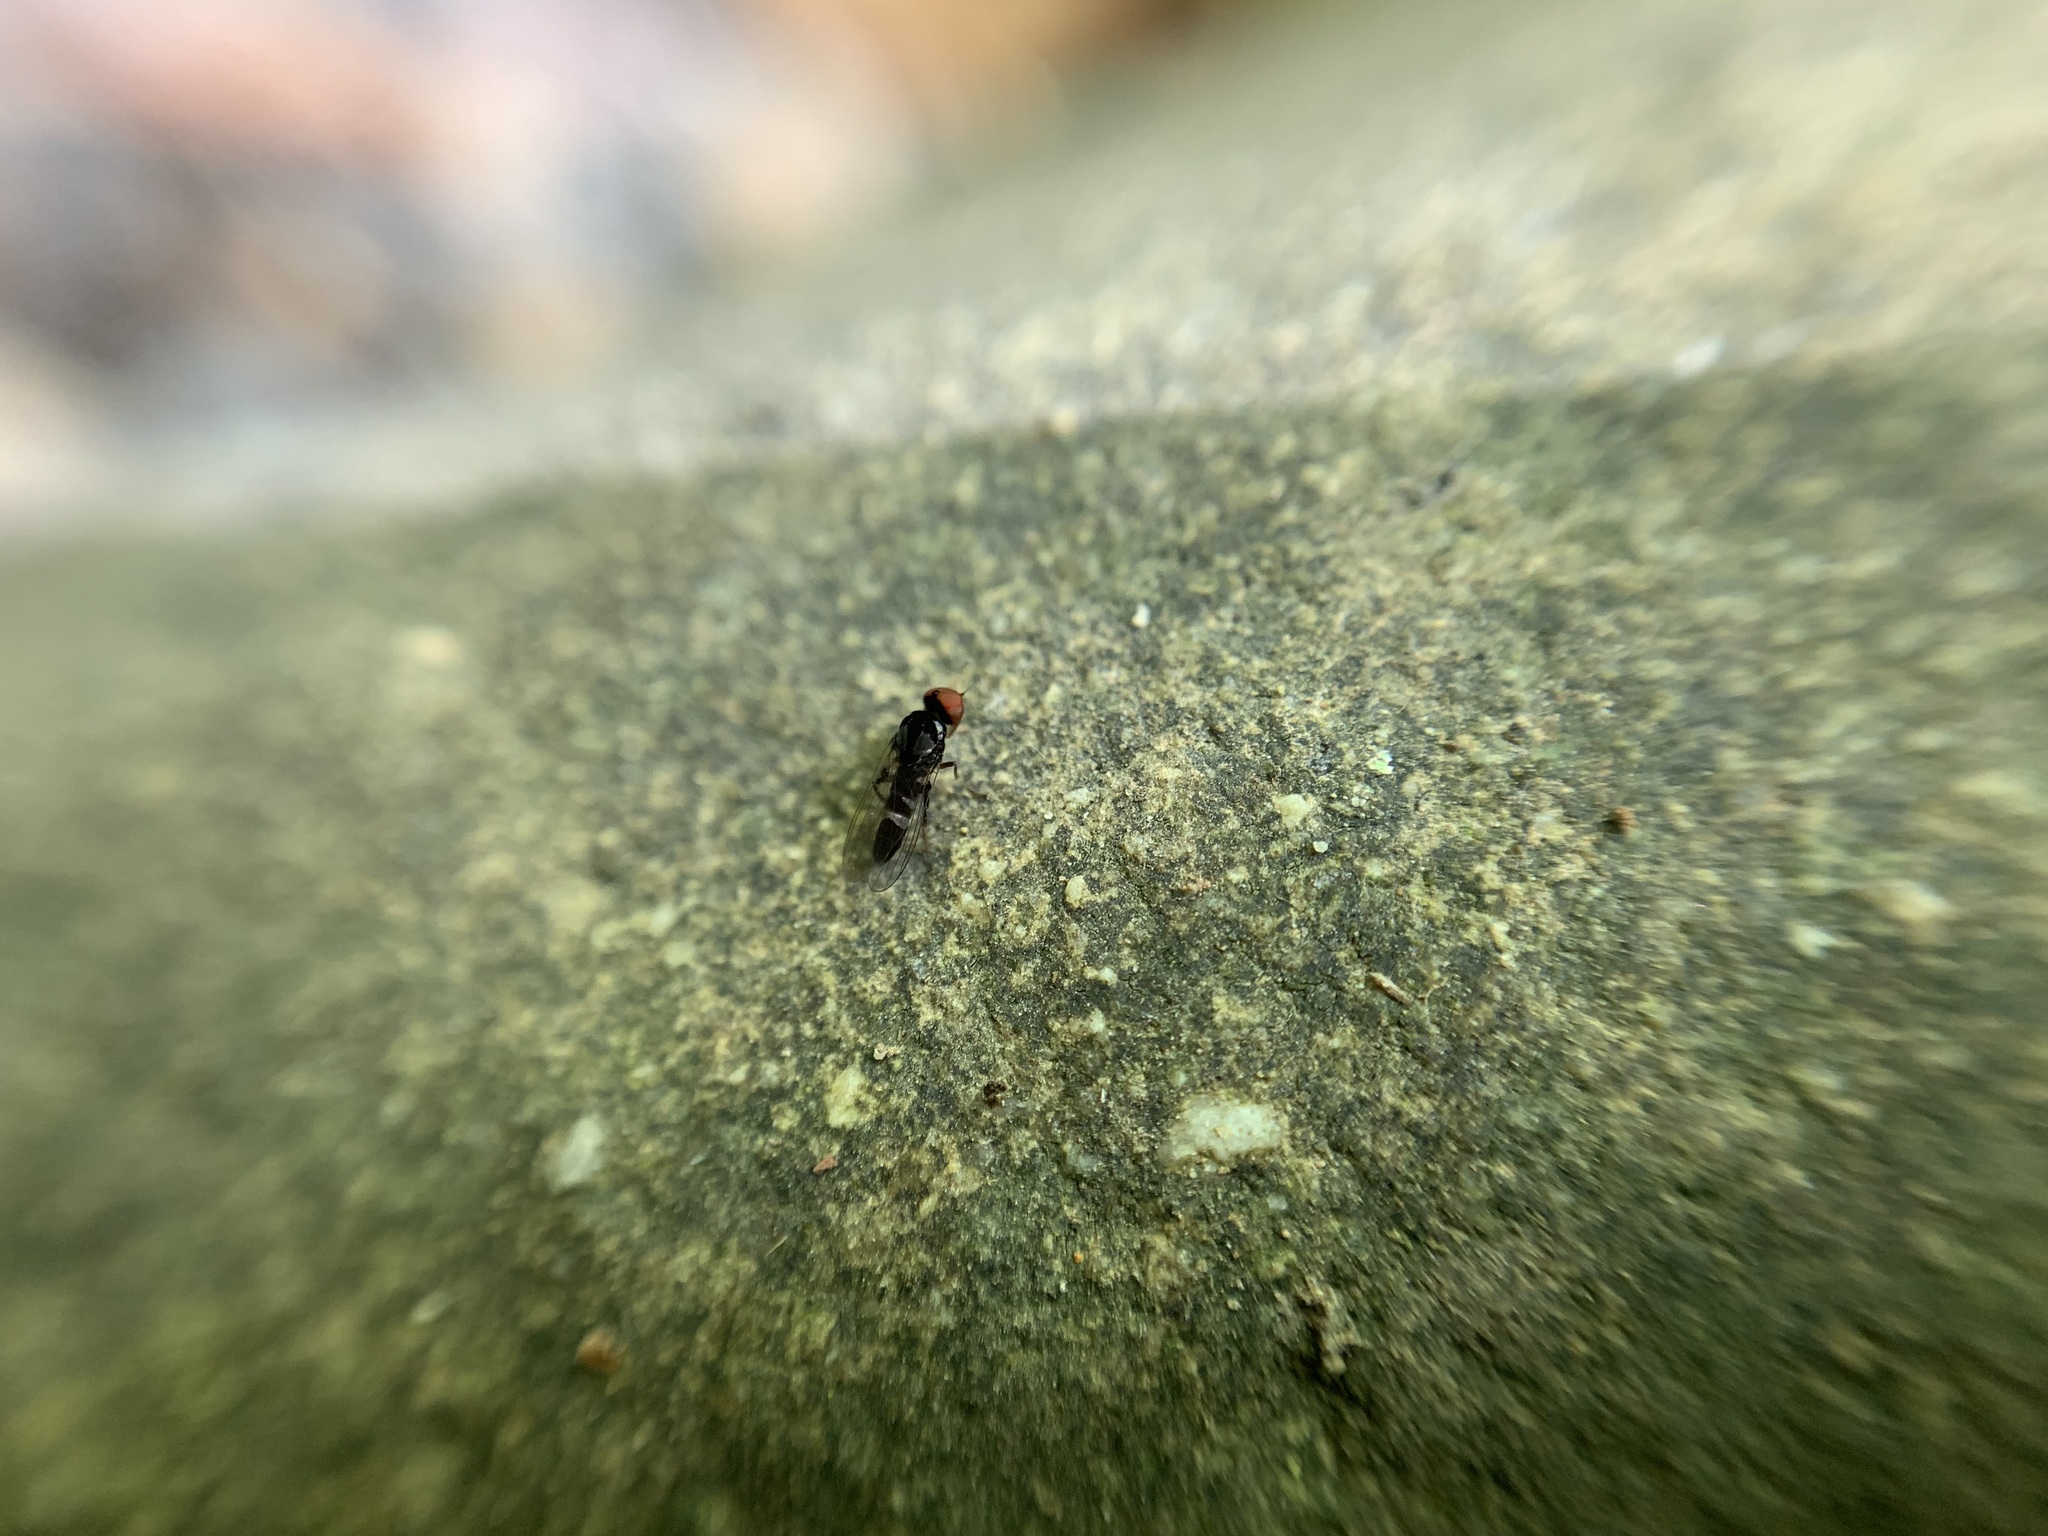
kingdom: Animalia
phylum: Arthropoda
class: Insecta
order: Diptera
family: Platypezidae
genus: Bertamyia
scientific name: Bertamyia notata
